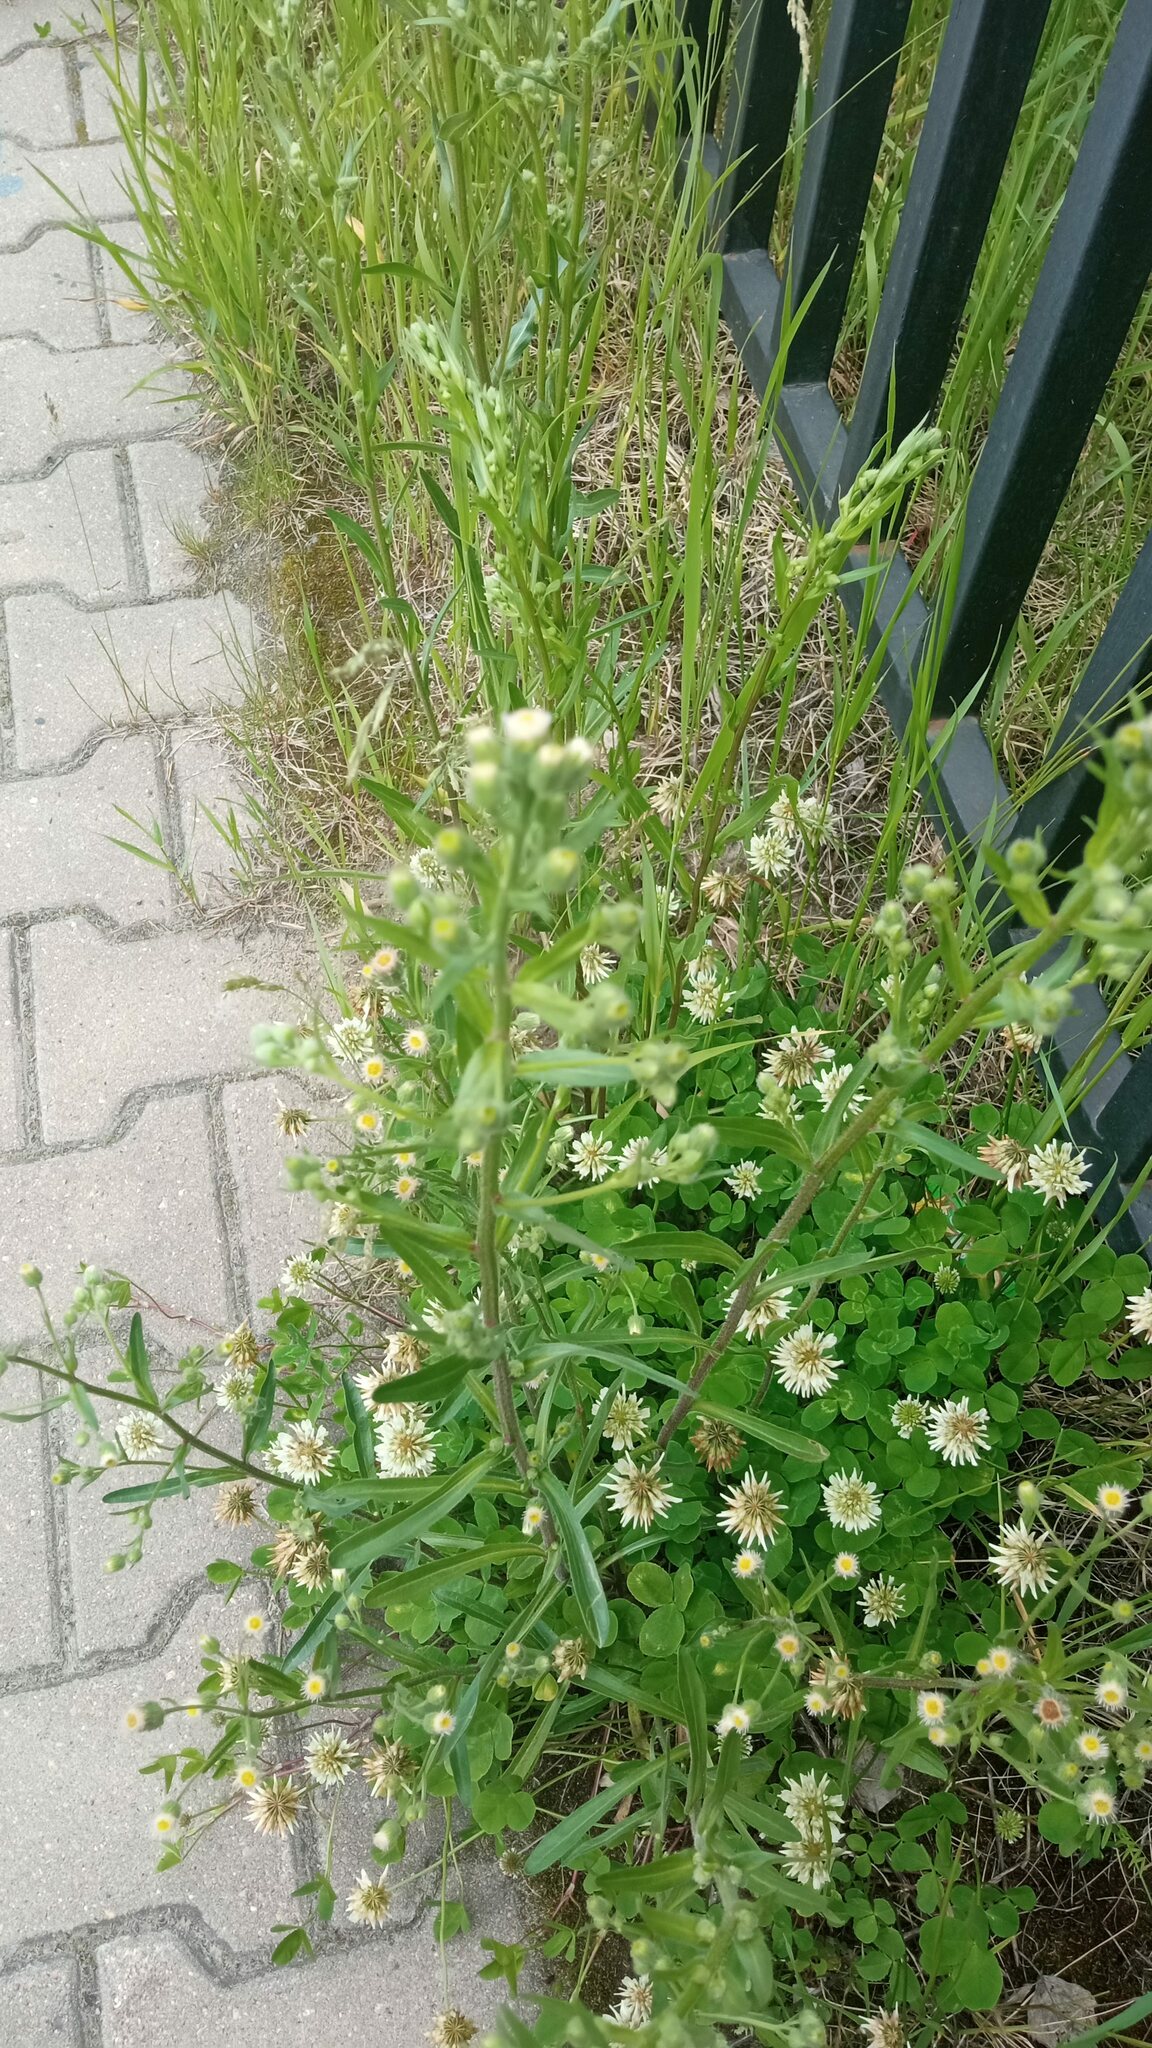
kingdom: Plantae
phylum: Tracheophyta
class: Magnoliopsida
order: Asterales
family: Asteraceae
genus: Erigeron
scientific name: Erigeron acris
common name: Blue fleabane
